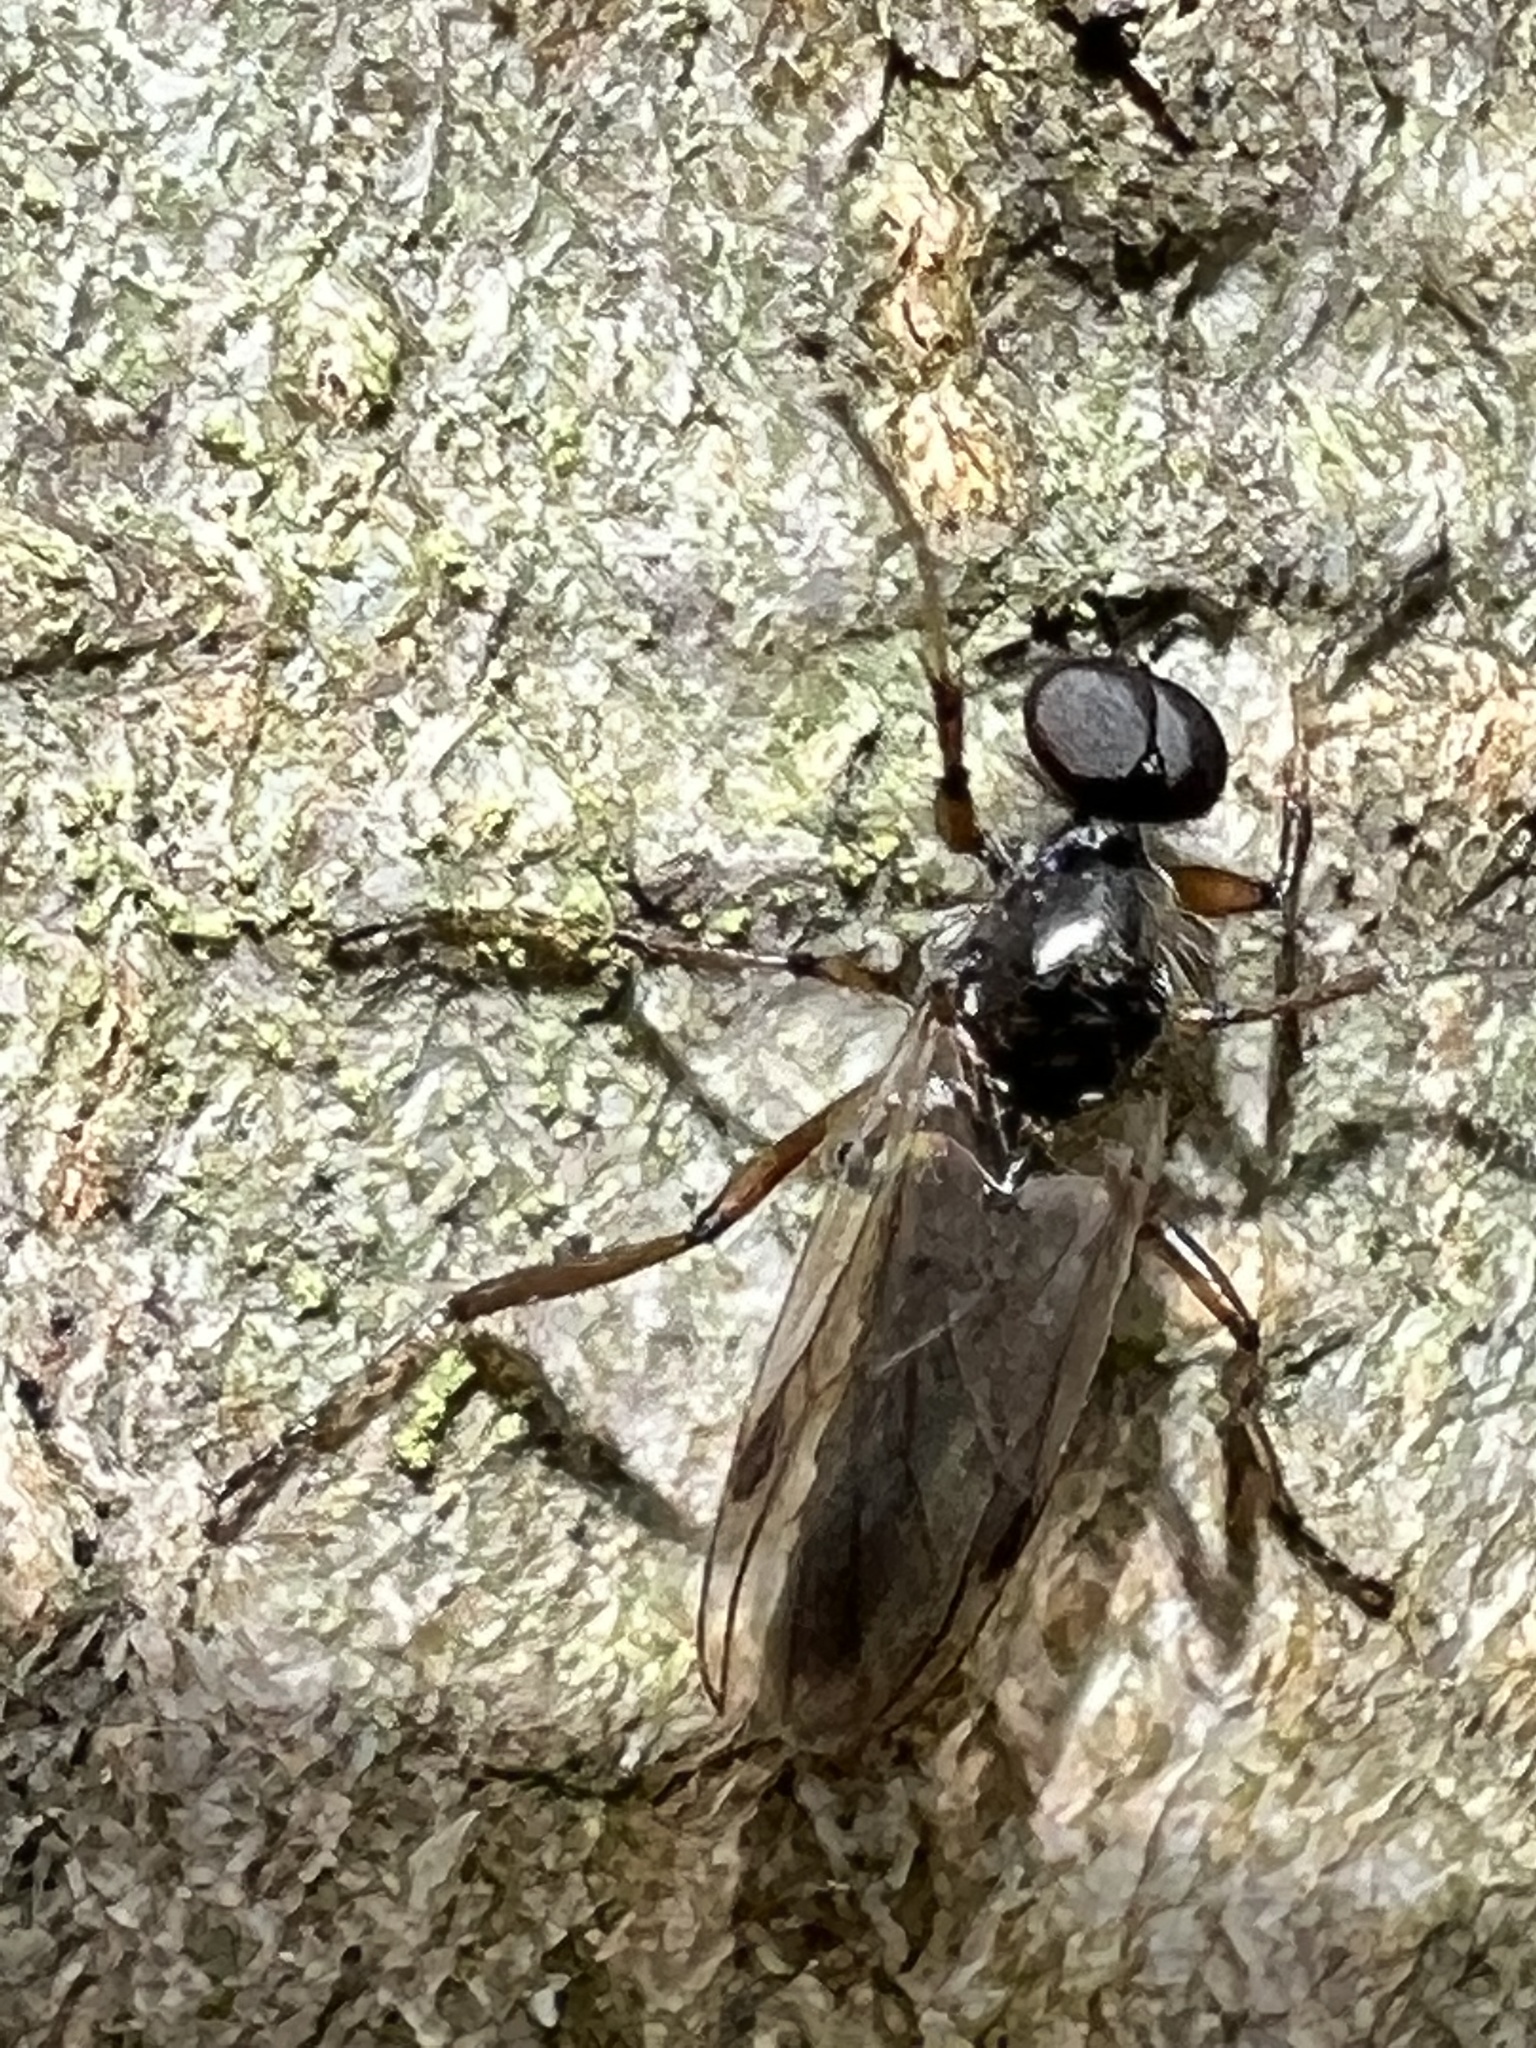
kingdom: Animalia
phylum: Arthropoda
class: Insecta
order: Diptera
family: Bibionidae
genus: Bibio
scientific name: Bibio articulatus
